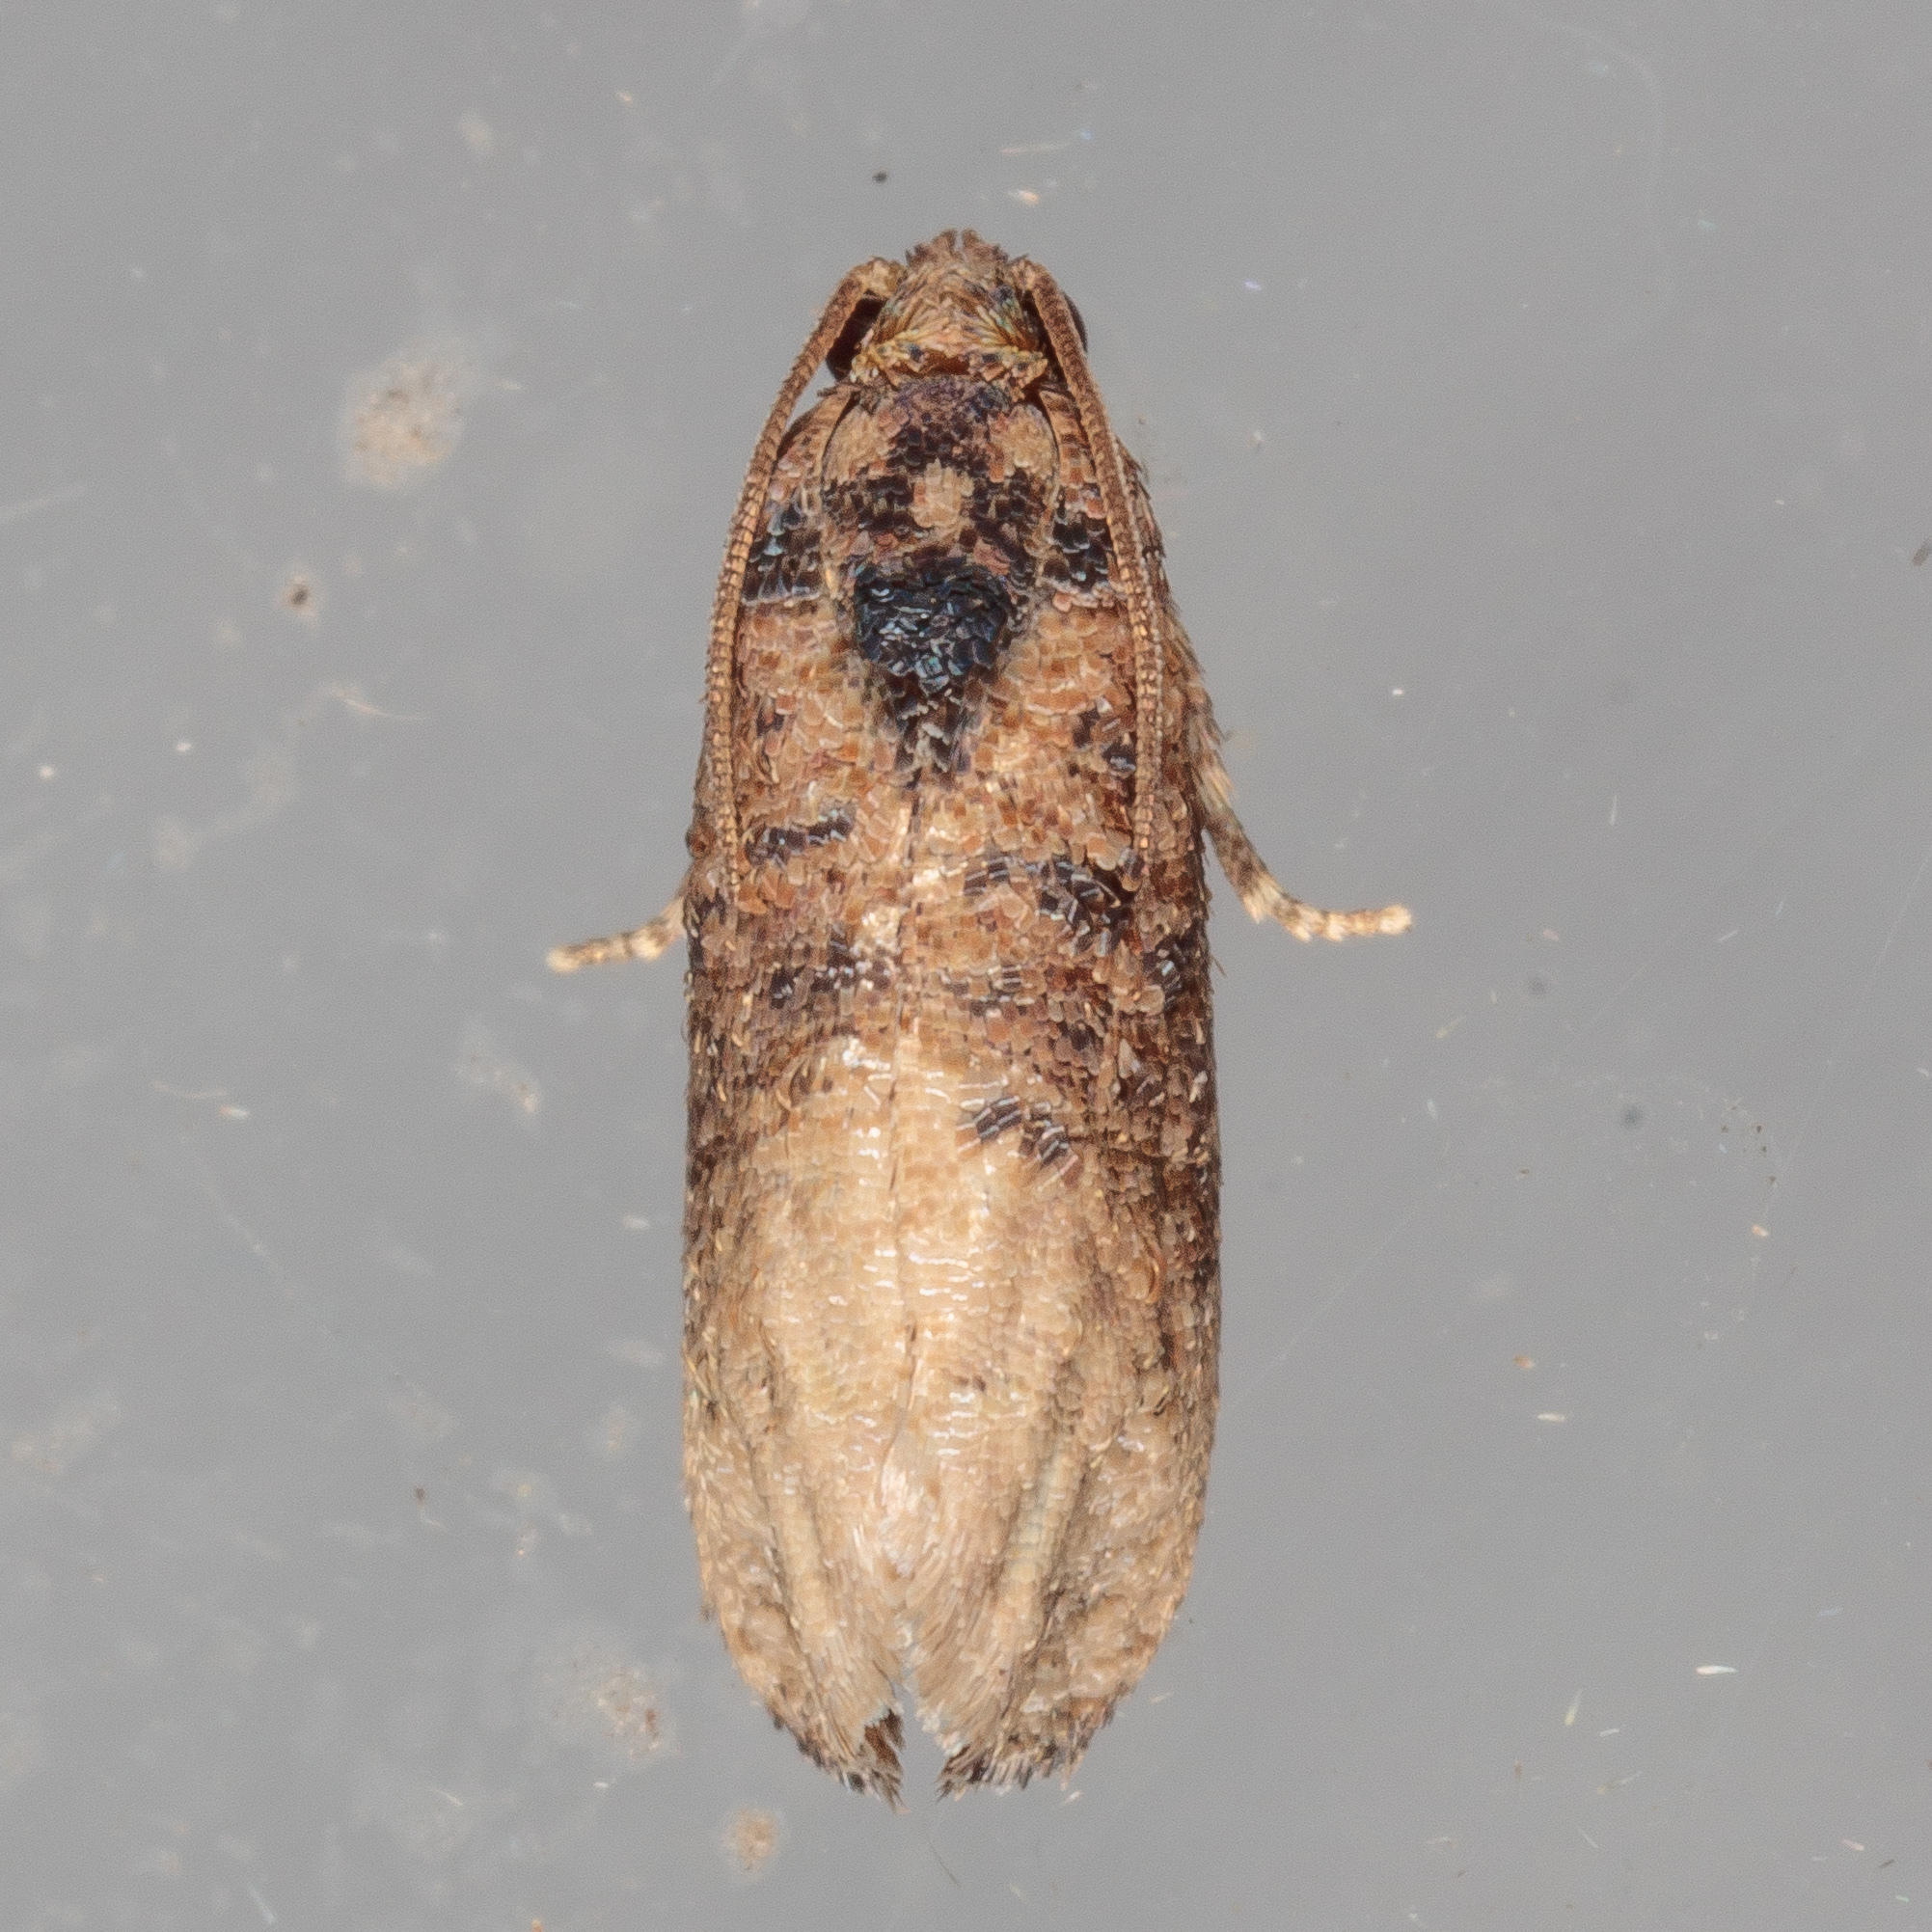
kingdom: Animalia
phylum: Arthropoda
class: Insecta
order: Lepidoptera
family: Tortricidae
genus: Ecdytolopha
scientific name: Ecdytolopha mana
